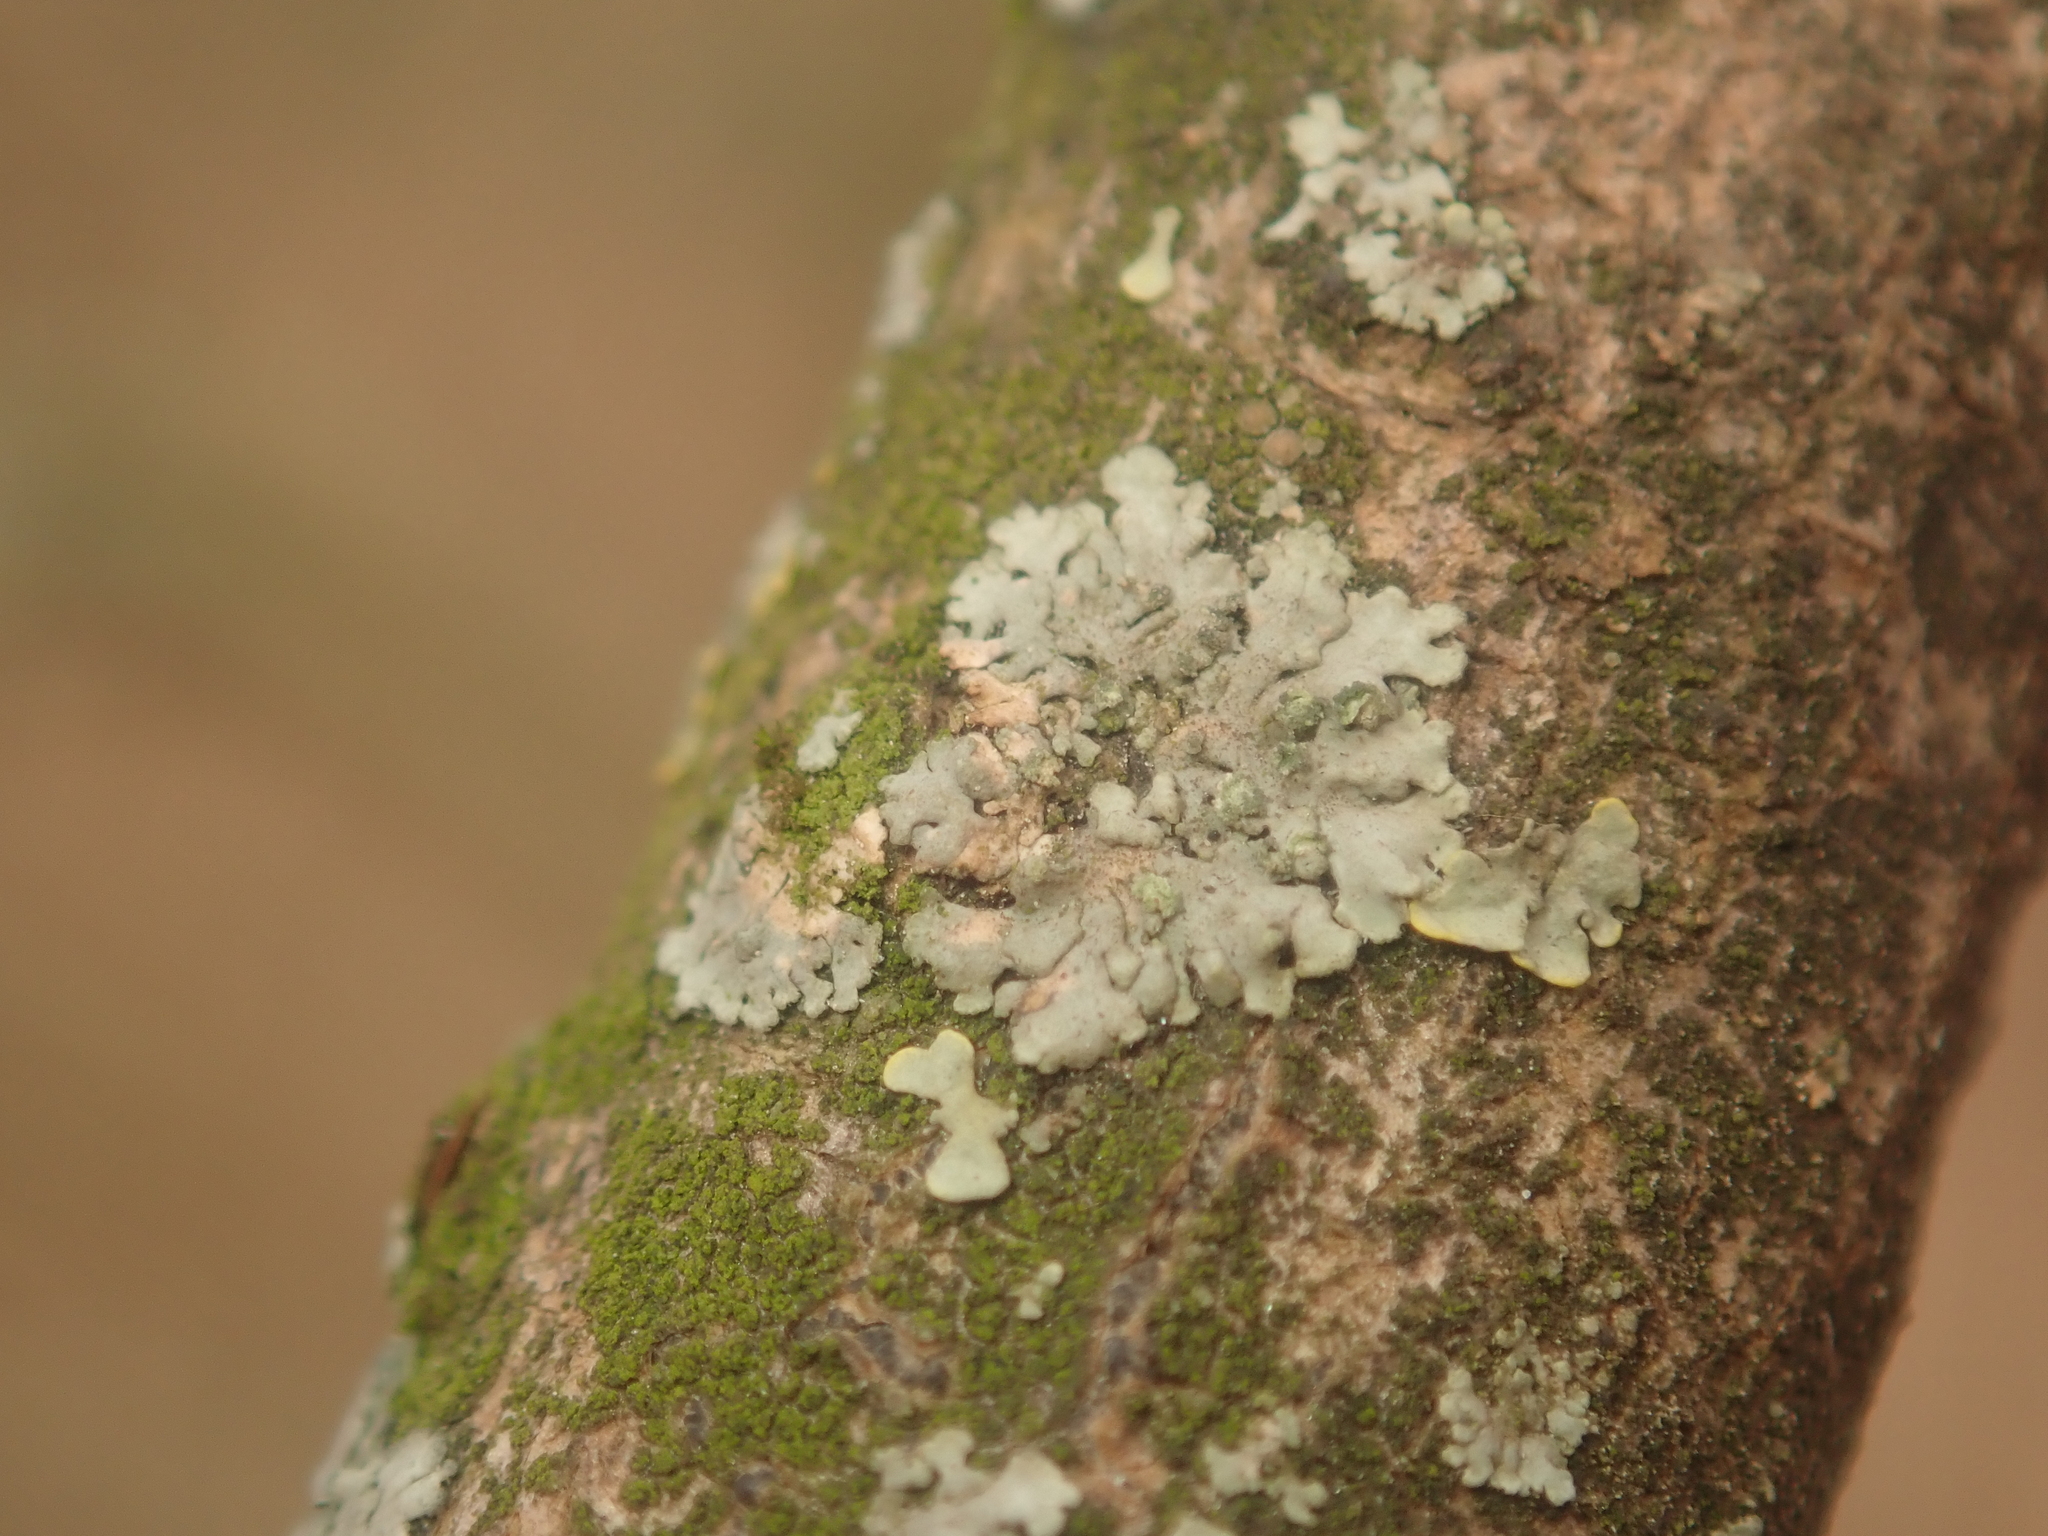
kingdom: Fungi
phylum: Ascomycota
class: Lecanoromycetes
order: Caliciales
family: Physciaceae
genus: Phaeophyscia
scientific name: Phaeophyscia orbicularis
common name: Mealy shadow lichen
